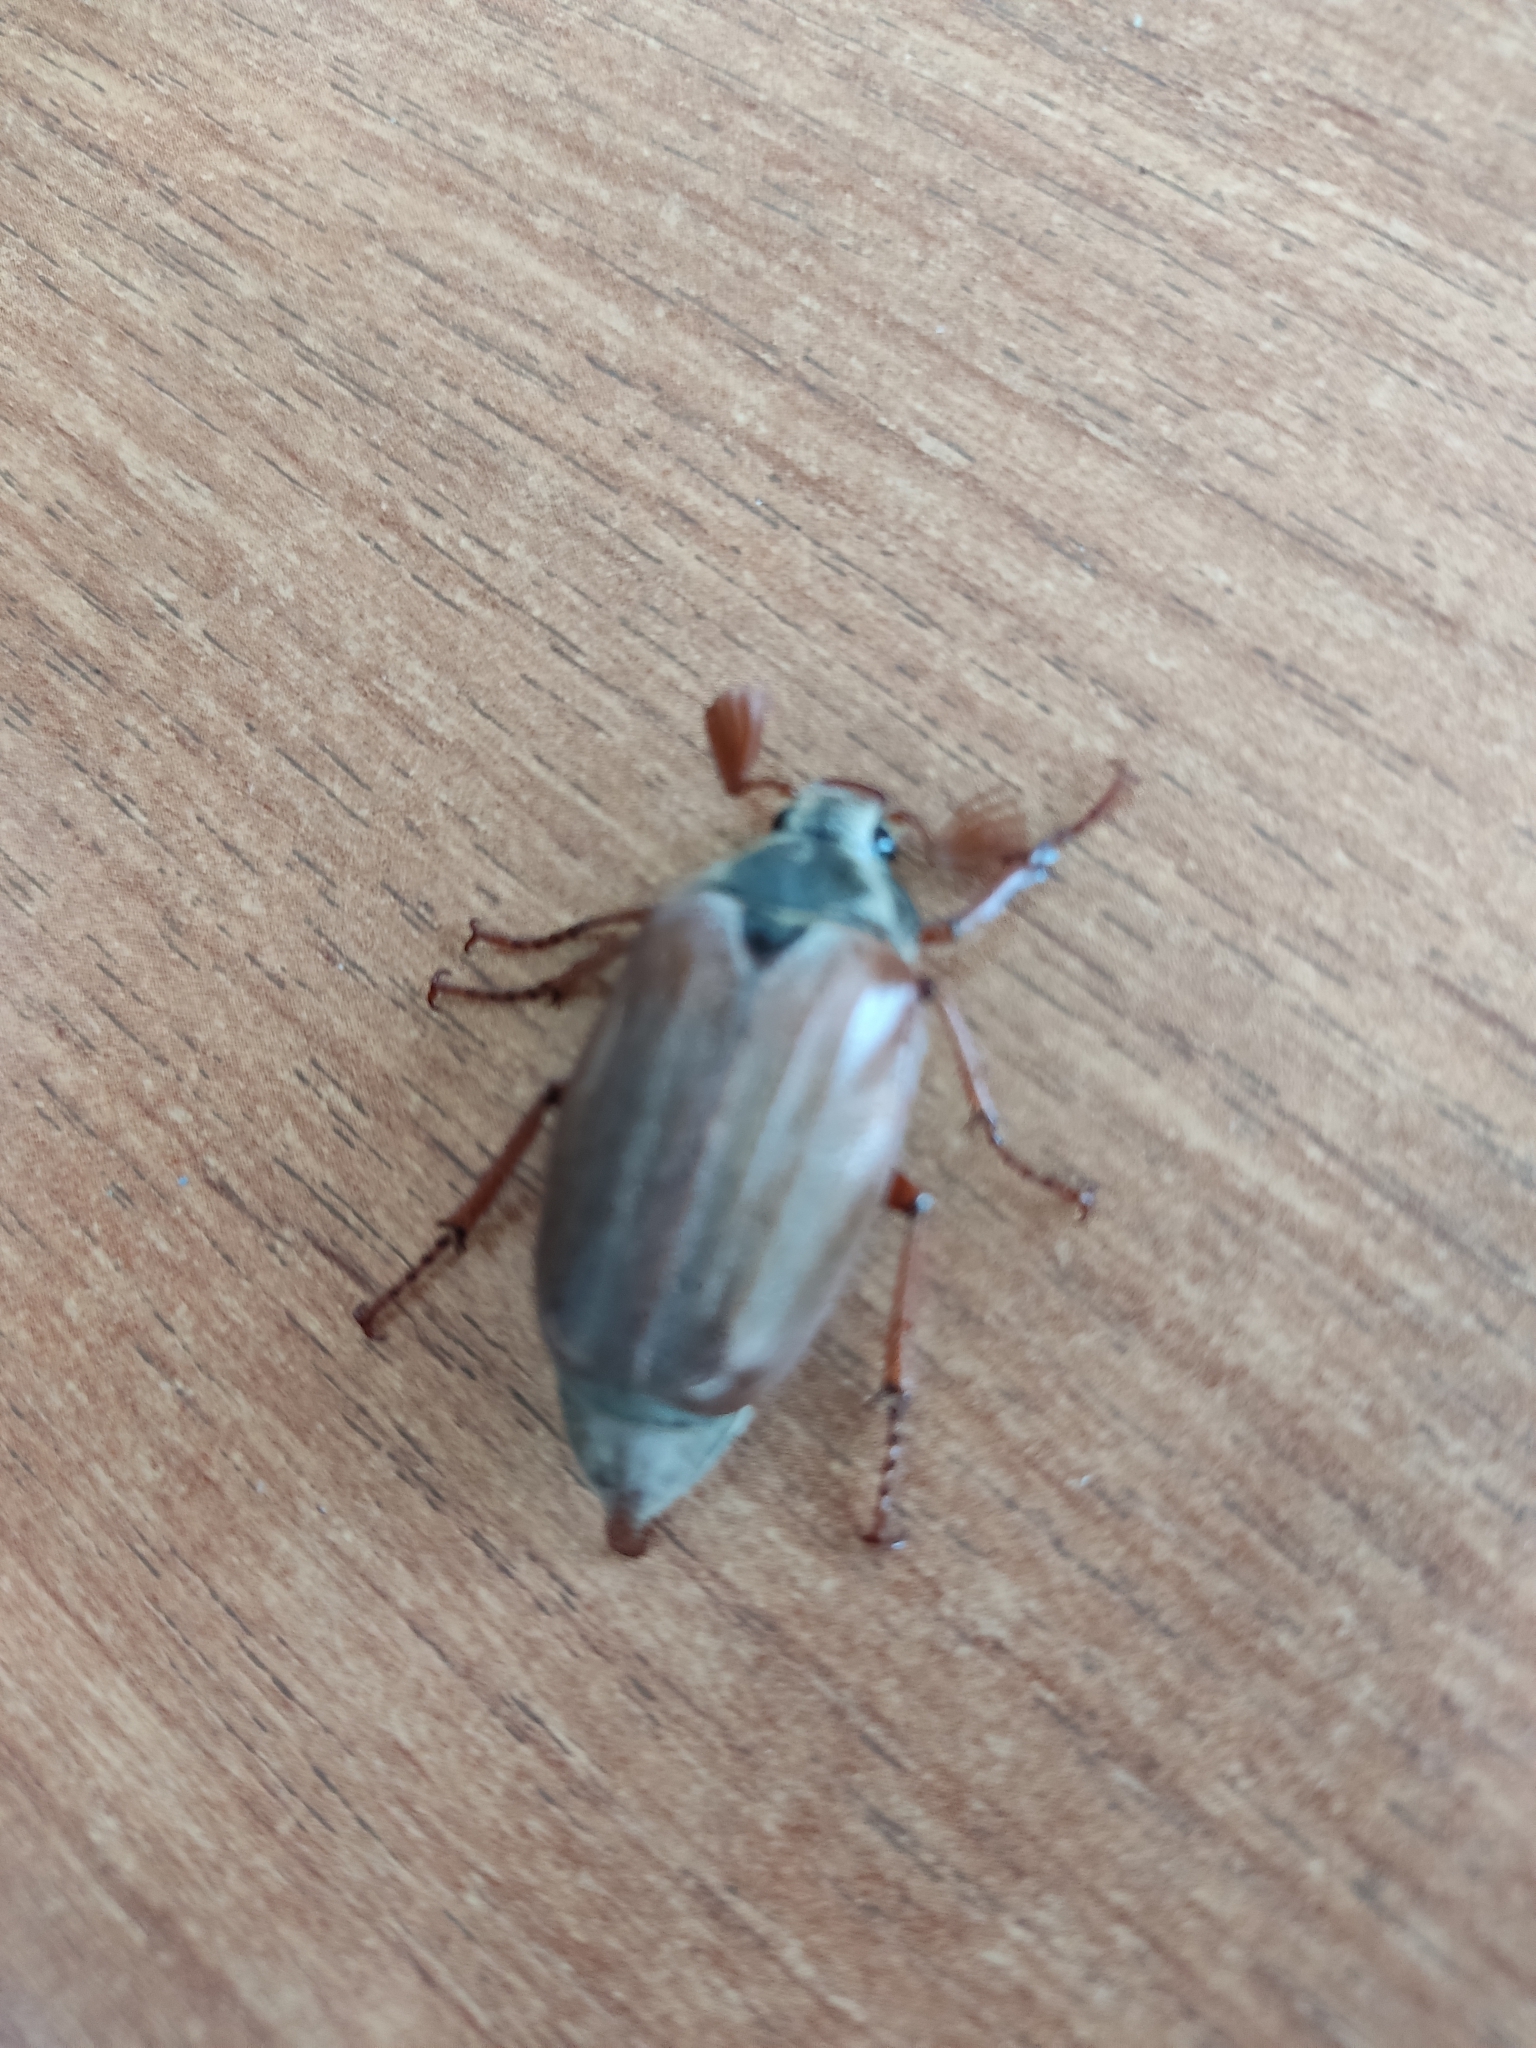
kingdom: Animalia
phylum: Arthropoda
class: Insecta
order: Coleoptera
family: Scarabaeidae
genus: Melolontha
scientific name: Melolontha melolontha
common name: Cockchafer maybeetle
